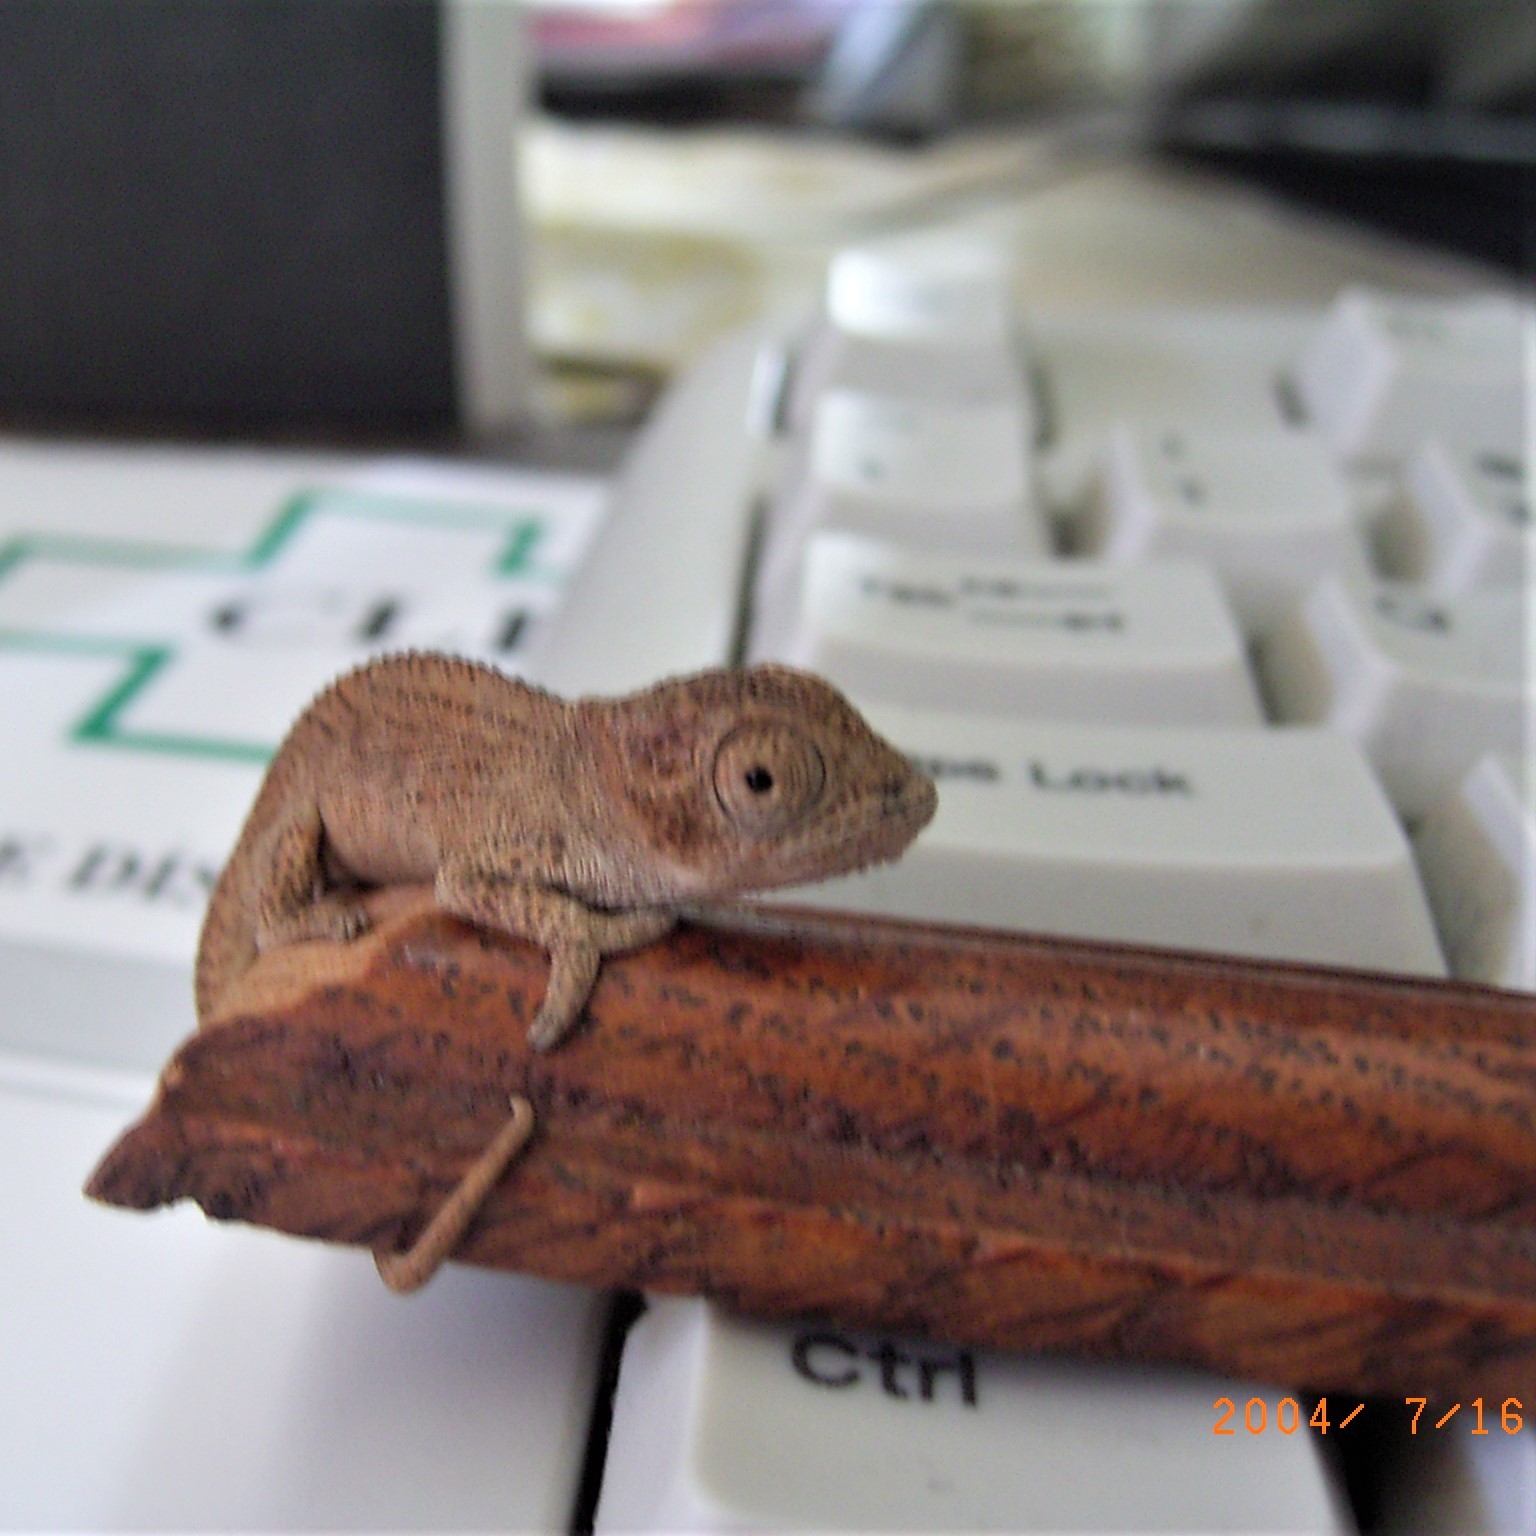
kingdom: Animalia
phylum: Chordata
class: Squamata
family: Chamaeleonidae
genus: Bradypodion
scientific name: Bradypodion damaranum
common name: Knysna dwarf chameleon
